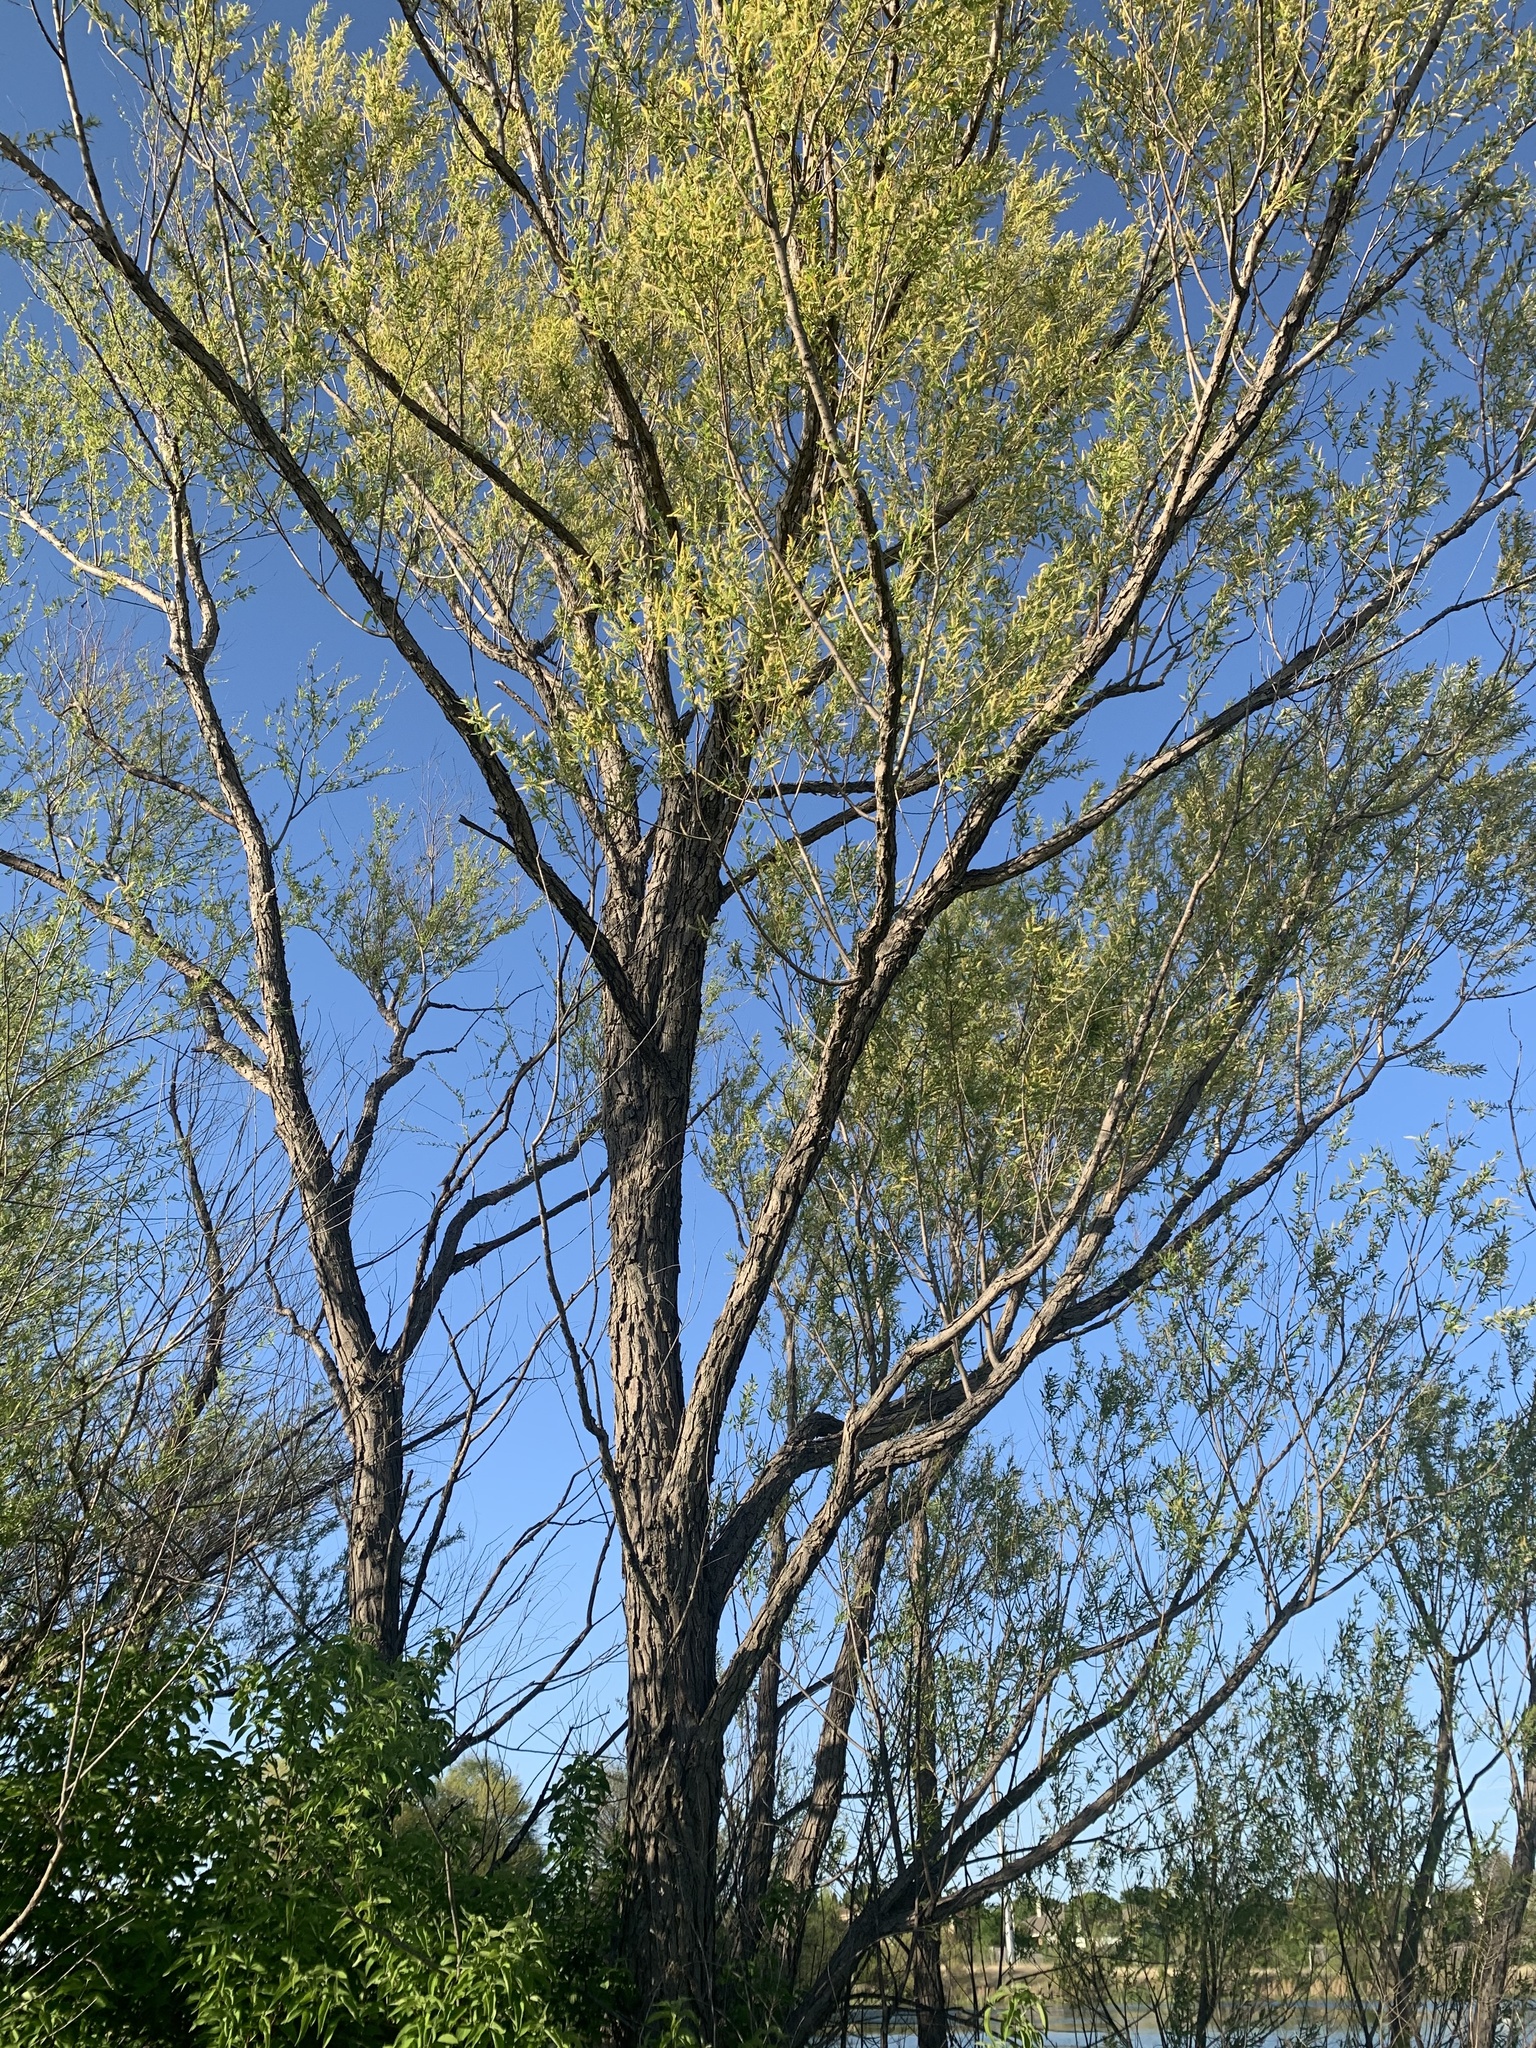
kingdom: Plantae
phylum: Tracheophyta
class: Magnoliopsida
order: Malpighiales
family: Salicaceae
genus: Salix
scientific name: Salix nigra
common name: Black willow
